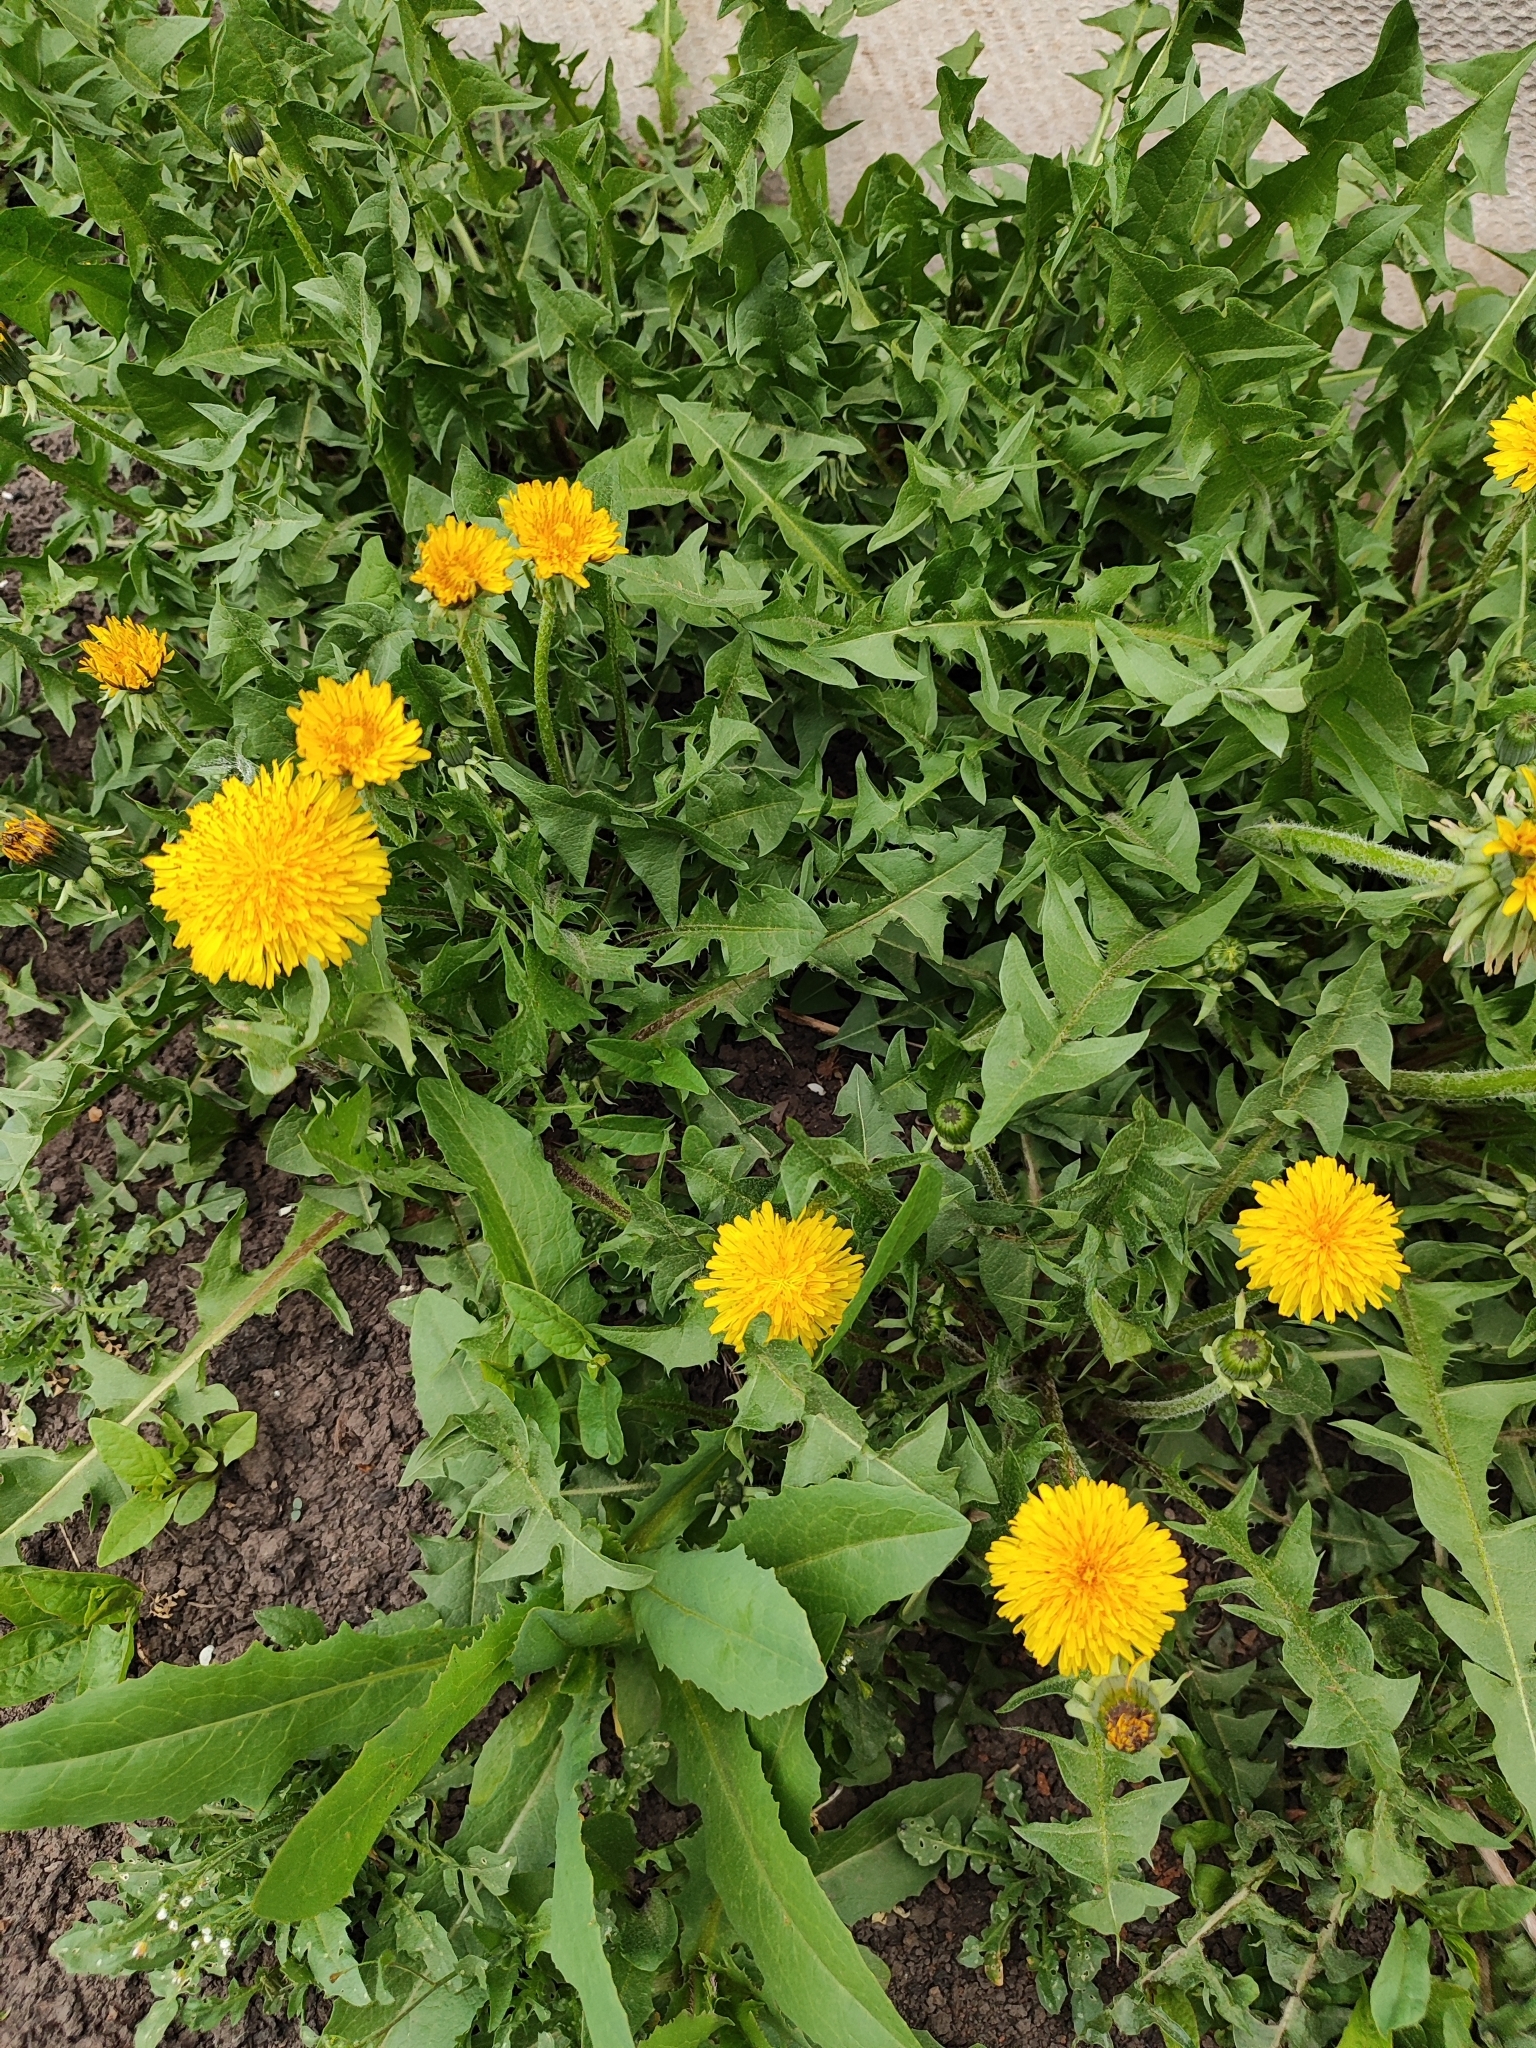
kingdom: Plantae
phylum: Tracheophyta
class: Magnoliopsida
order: Asterales
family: Asteraceae
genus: Taraxacum
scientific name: Taraxacum officinale
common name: Common dandelion
